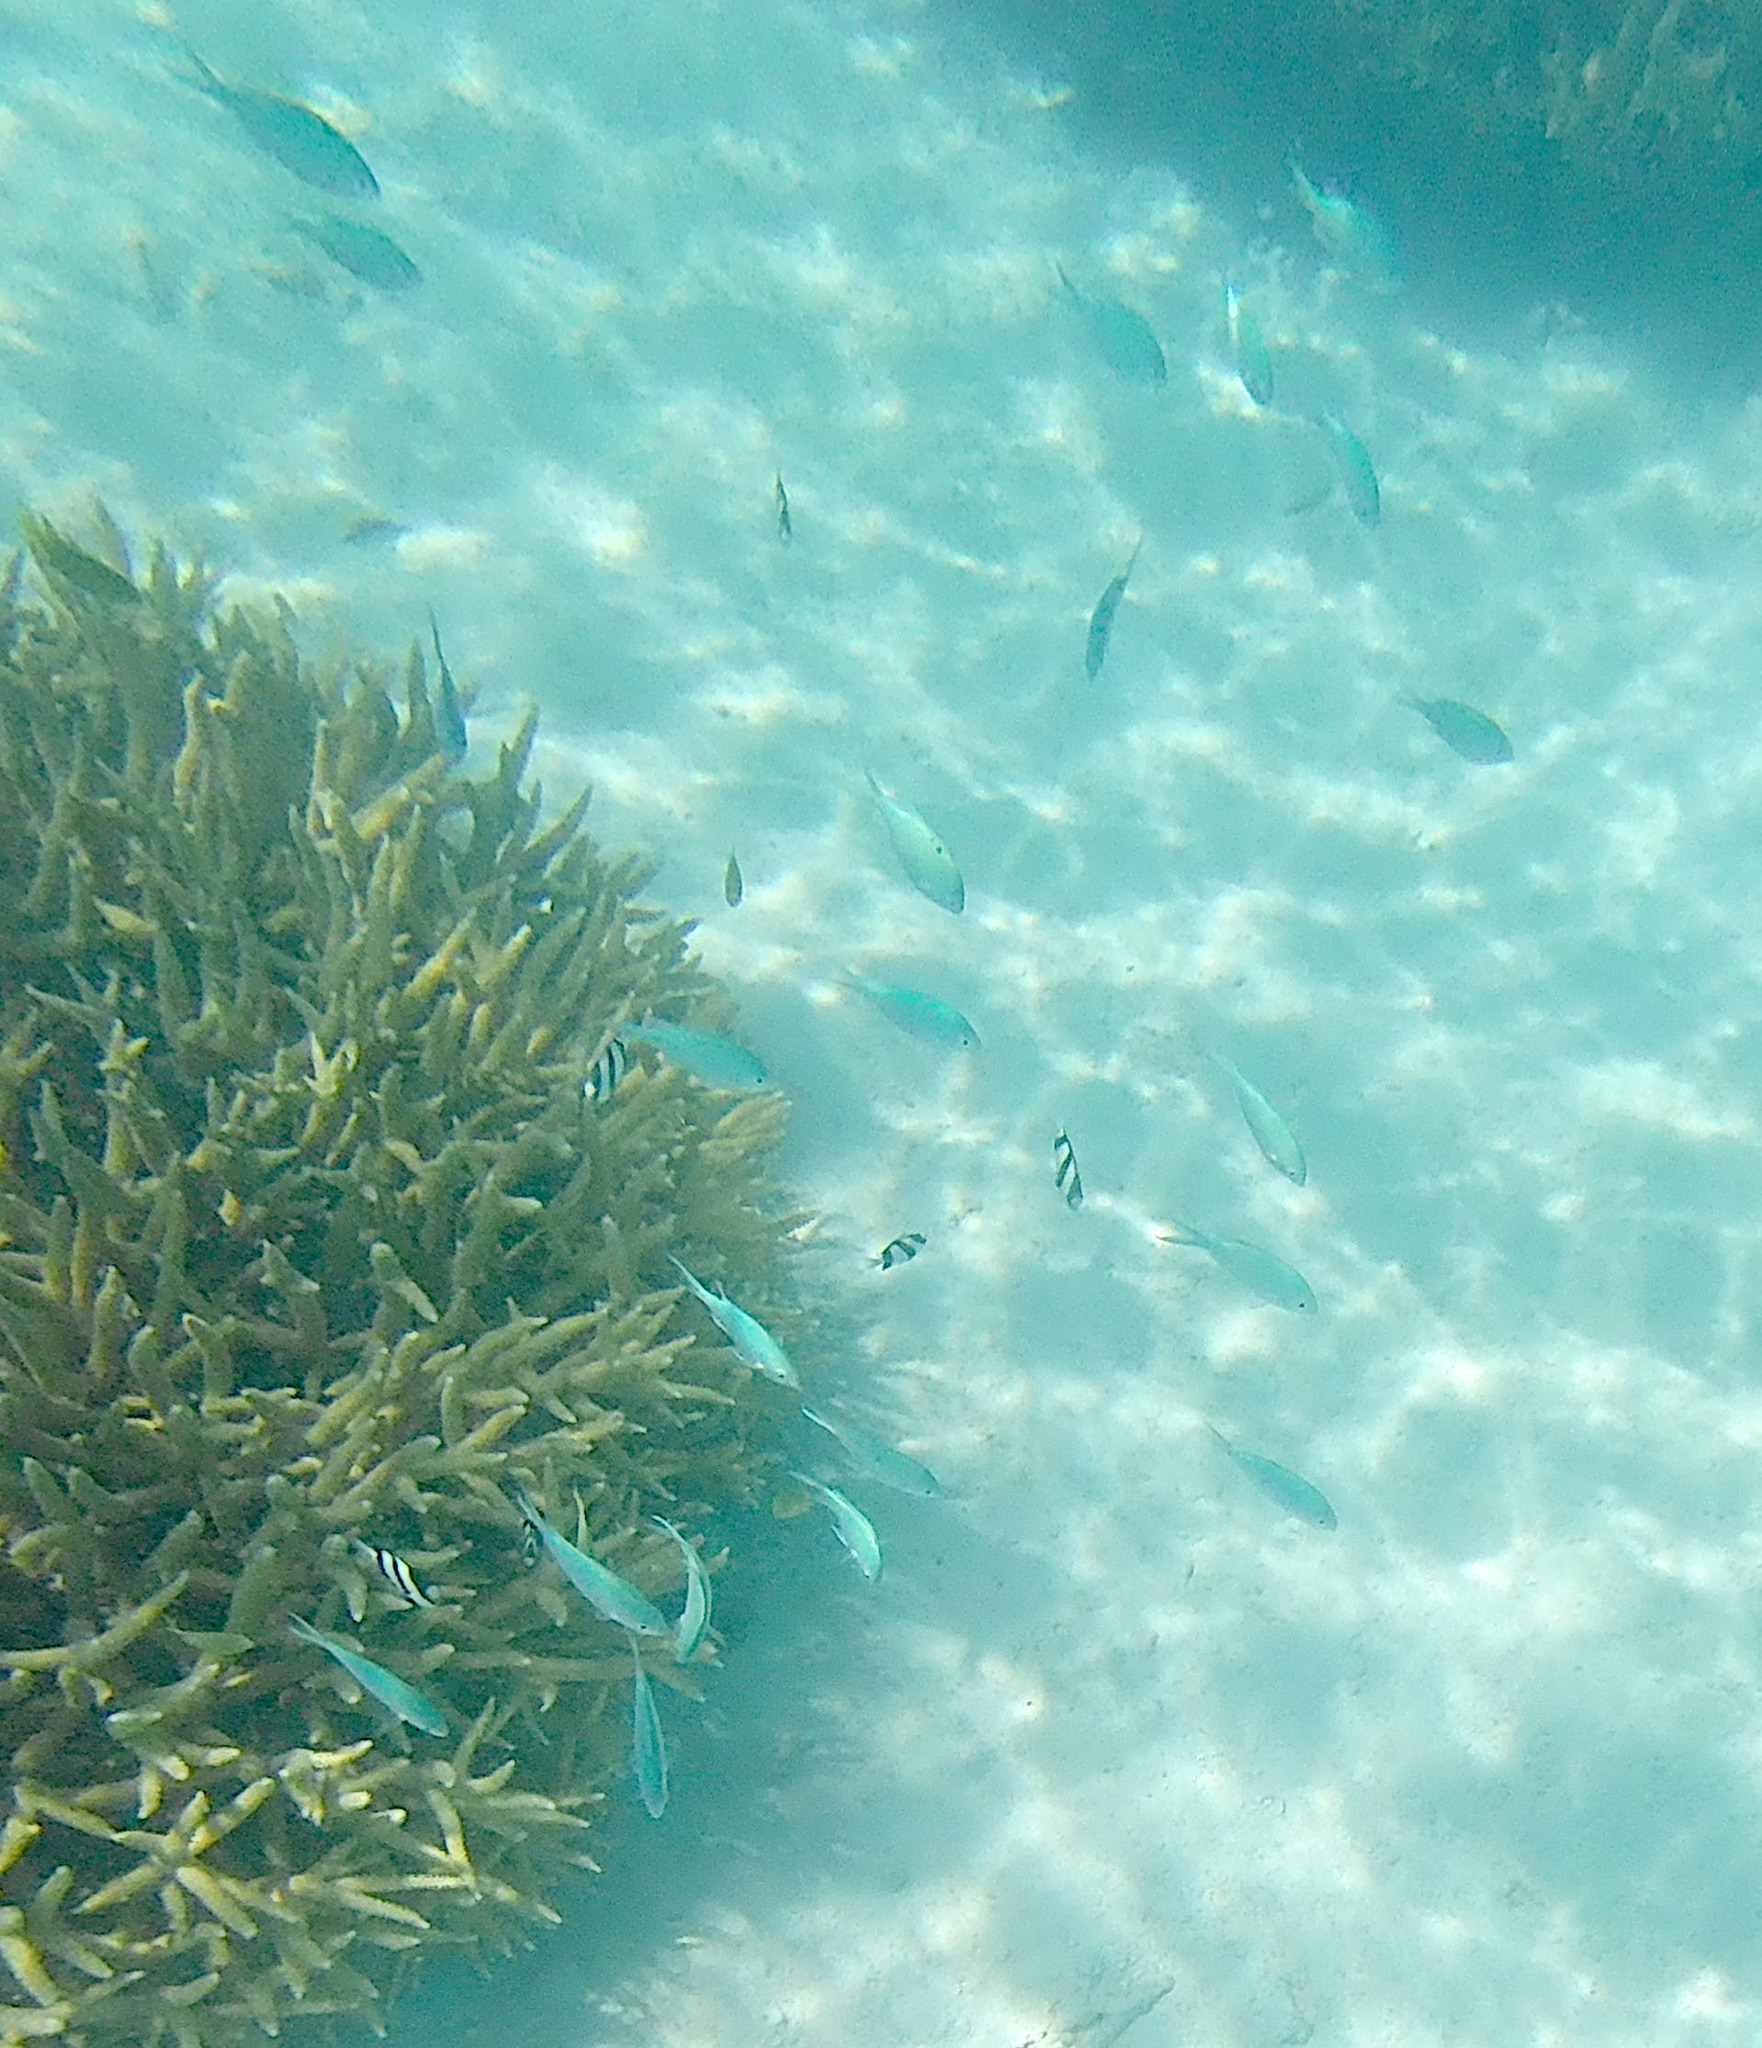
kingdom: Animalia
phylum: Chordata
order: Perciformes
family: Pomacentridae
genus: Chromis
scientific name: Chromis viridis
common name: Blue-green chromis
